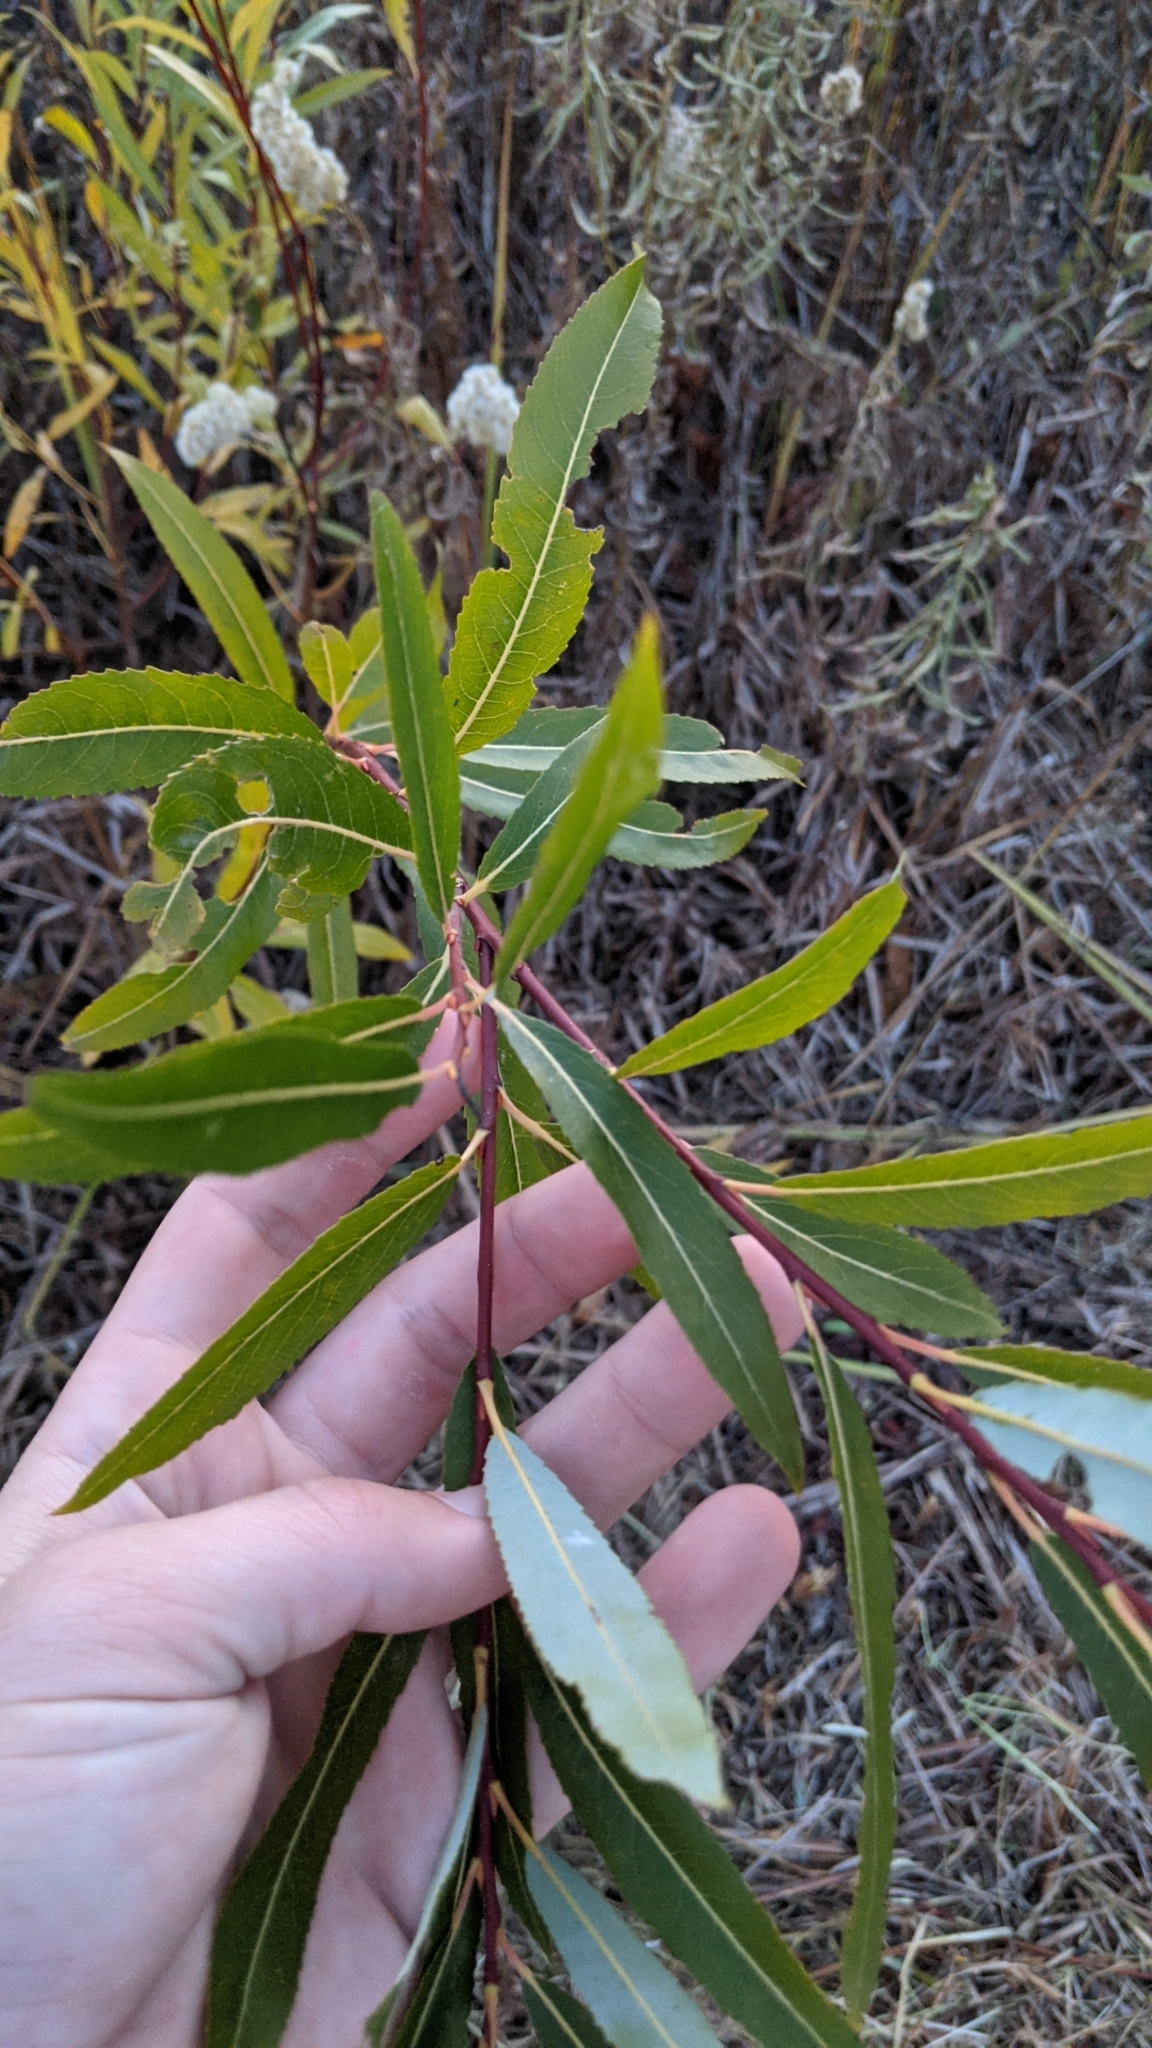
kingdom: Plantae
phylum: Tracheophyta
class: Magnoliopsida
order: Malpighiales
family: Salicaceae
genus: Salix
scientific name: Salix petiolaris
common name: Slender willow
